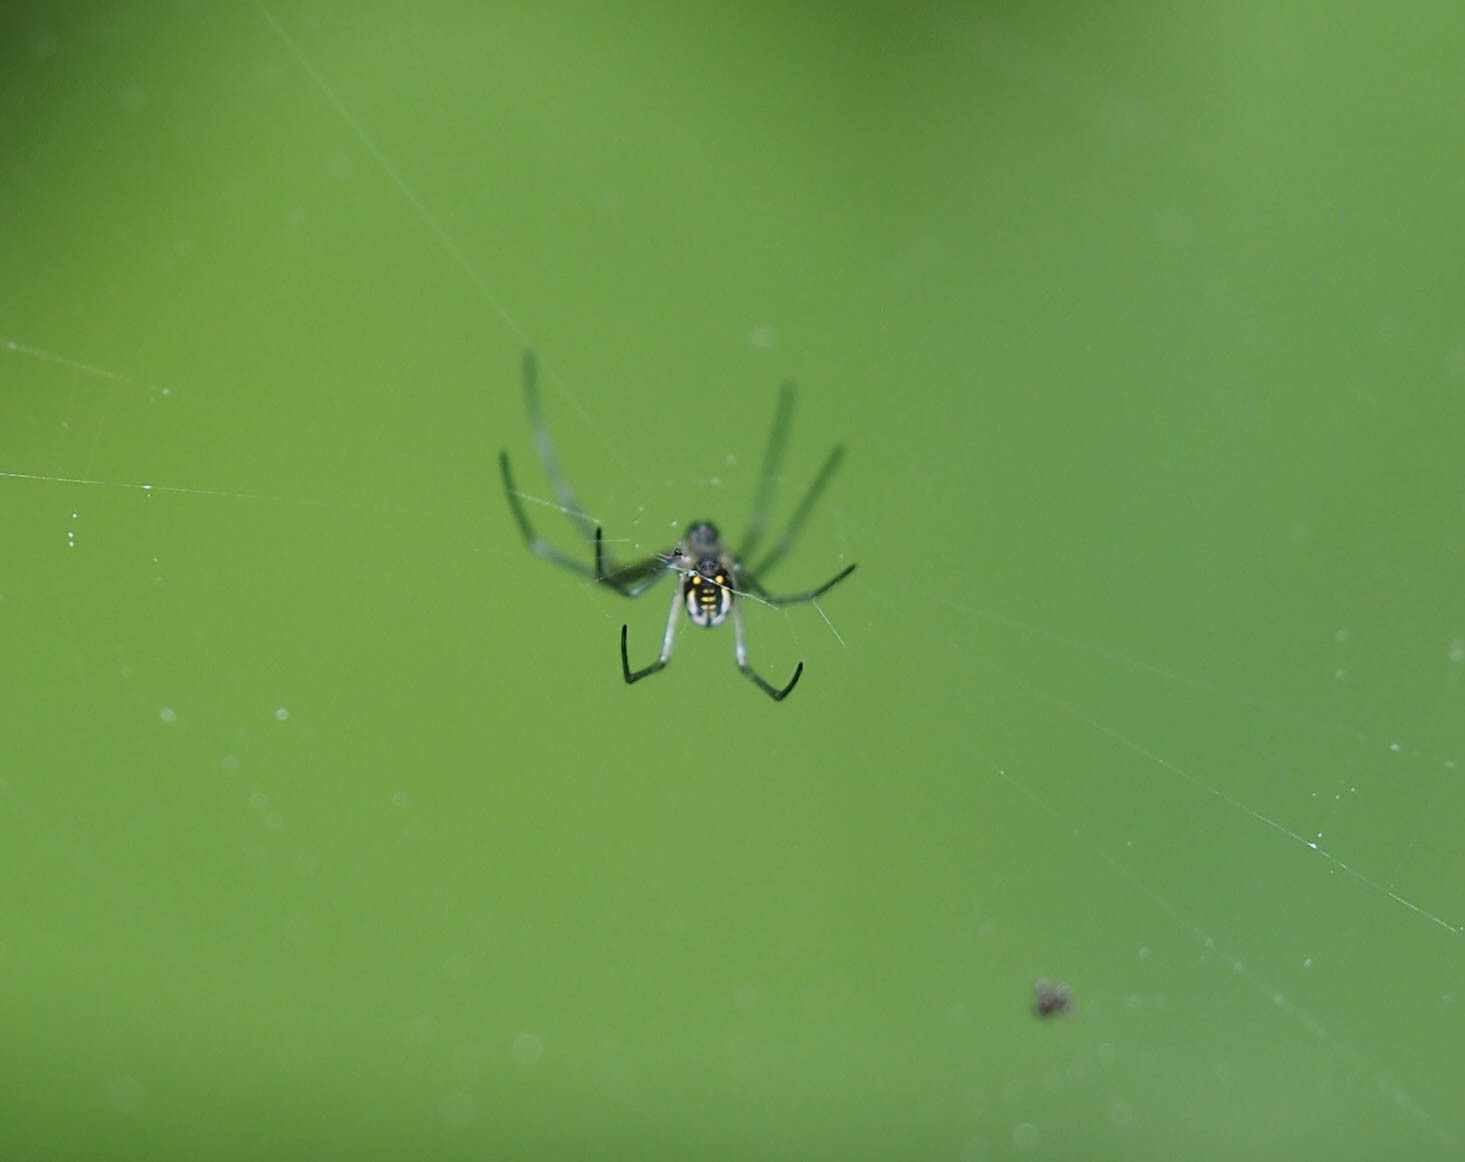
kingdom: Animalia
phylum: Arthropoda
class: Arachnida
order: Araneae
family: Tetragnathidae
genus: Leucauge
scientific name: Leucauge argyra
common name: Longjawed orb weavers
